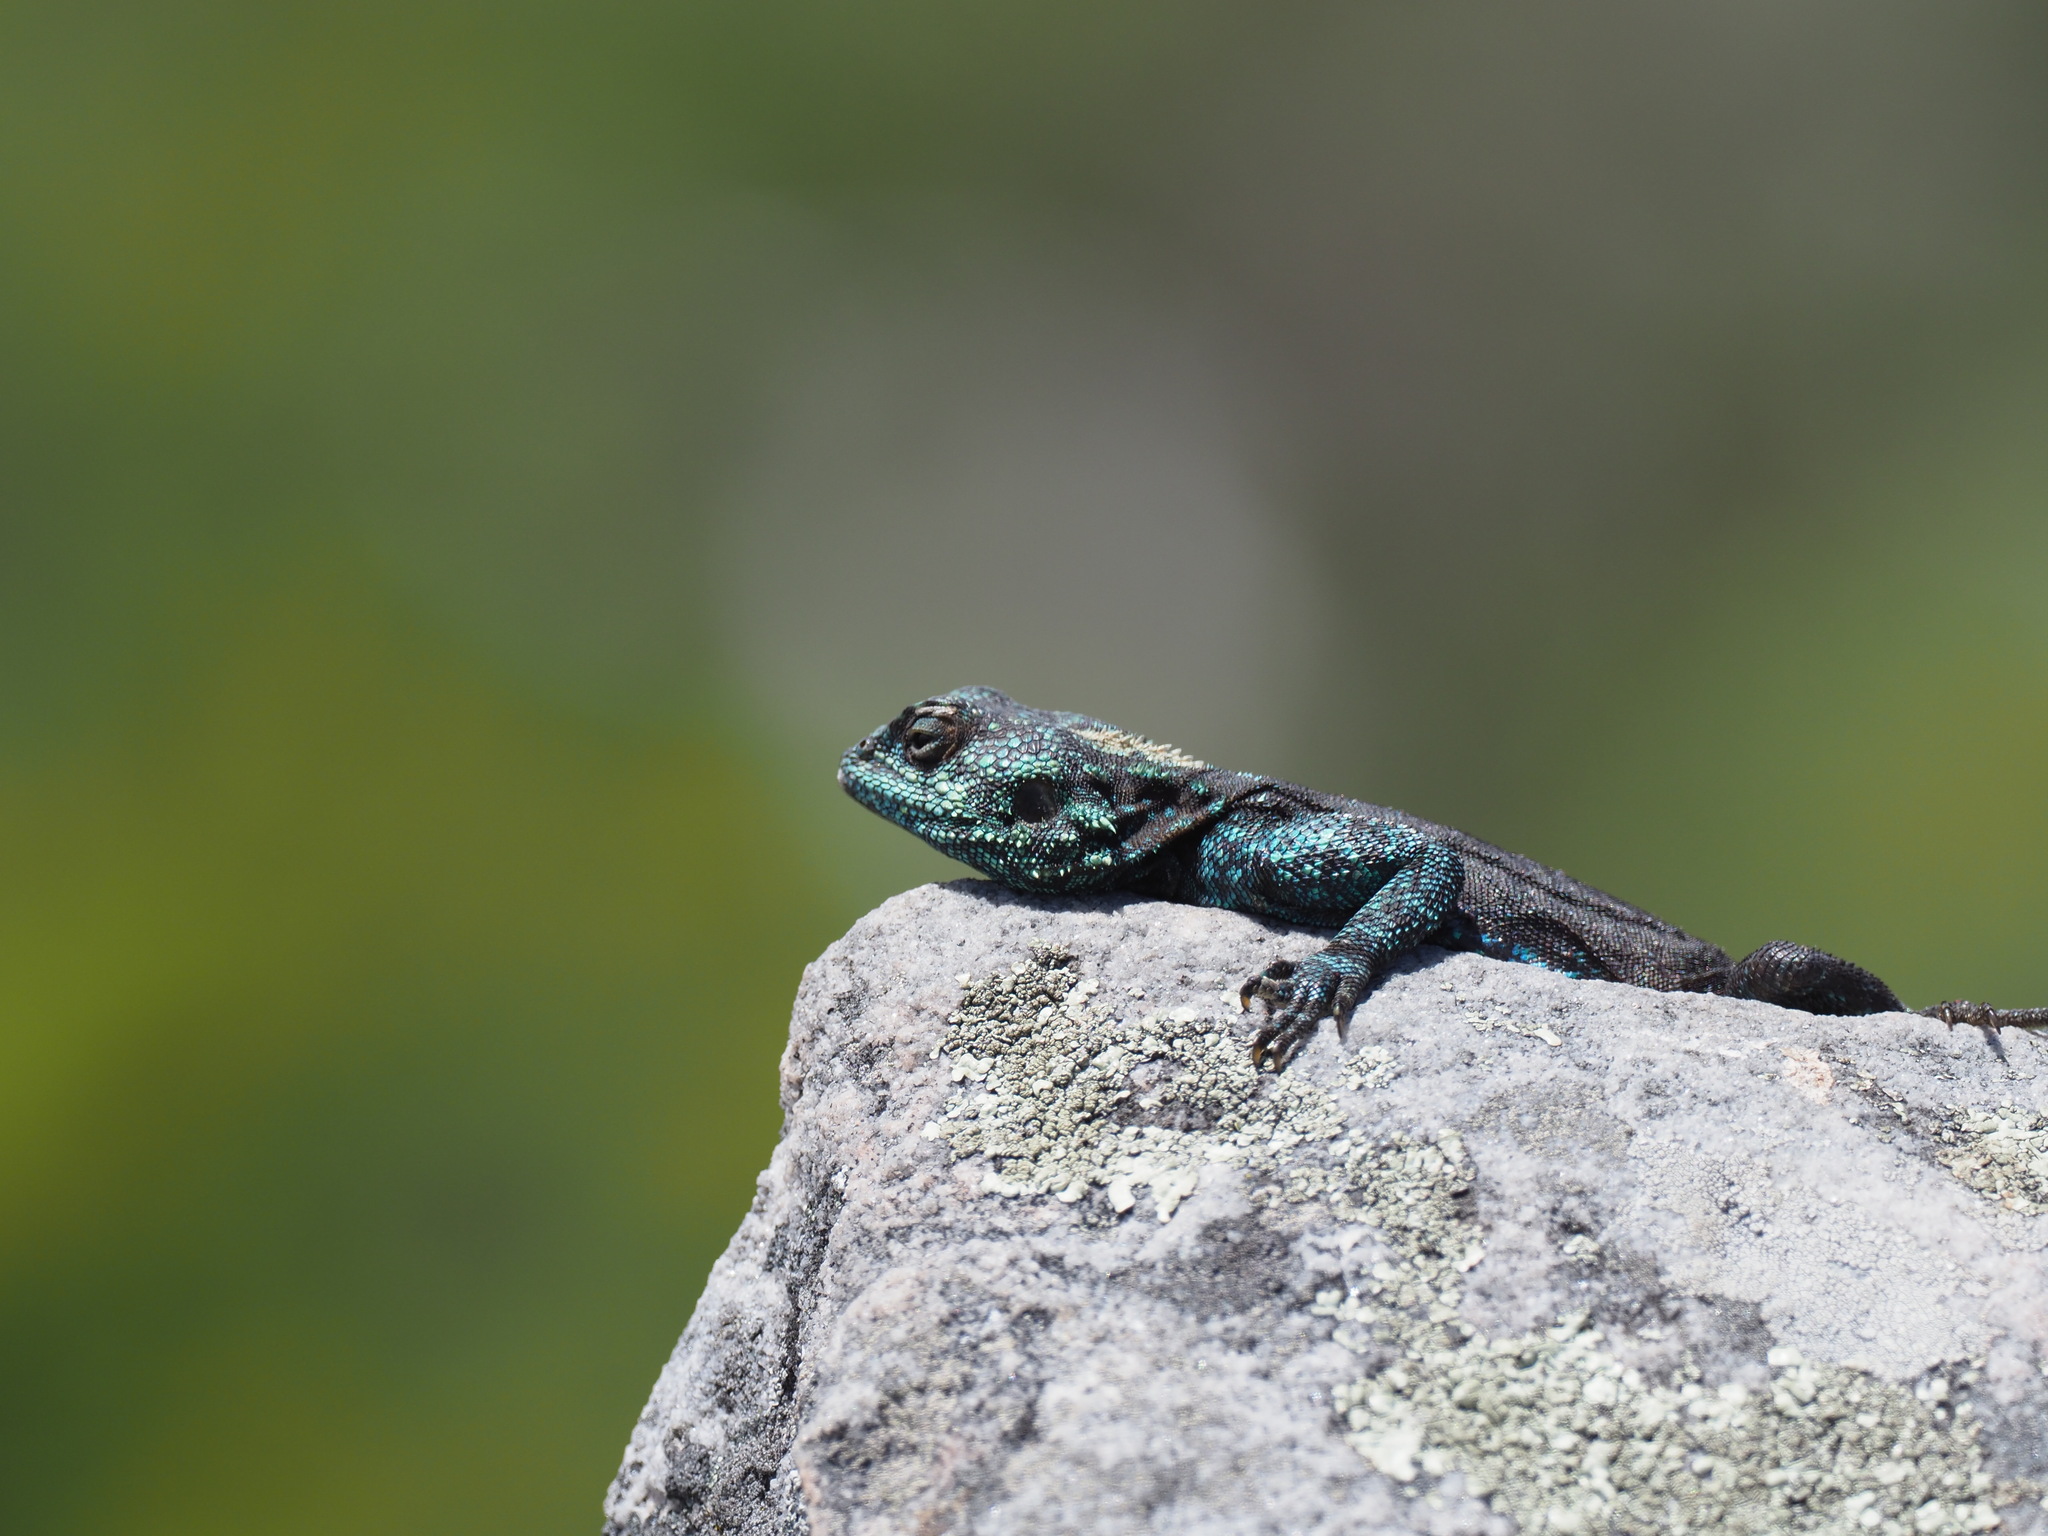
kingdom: Animalia
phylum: Chordata
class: Squamata
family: Agamidae
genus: Agama
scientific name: Agama atra
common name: Southern african rock agama
